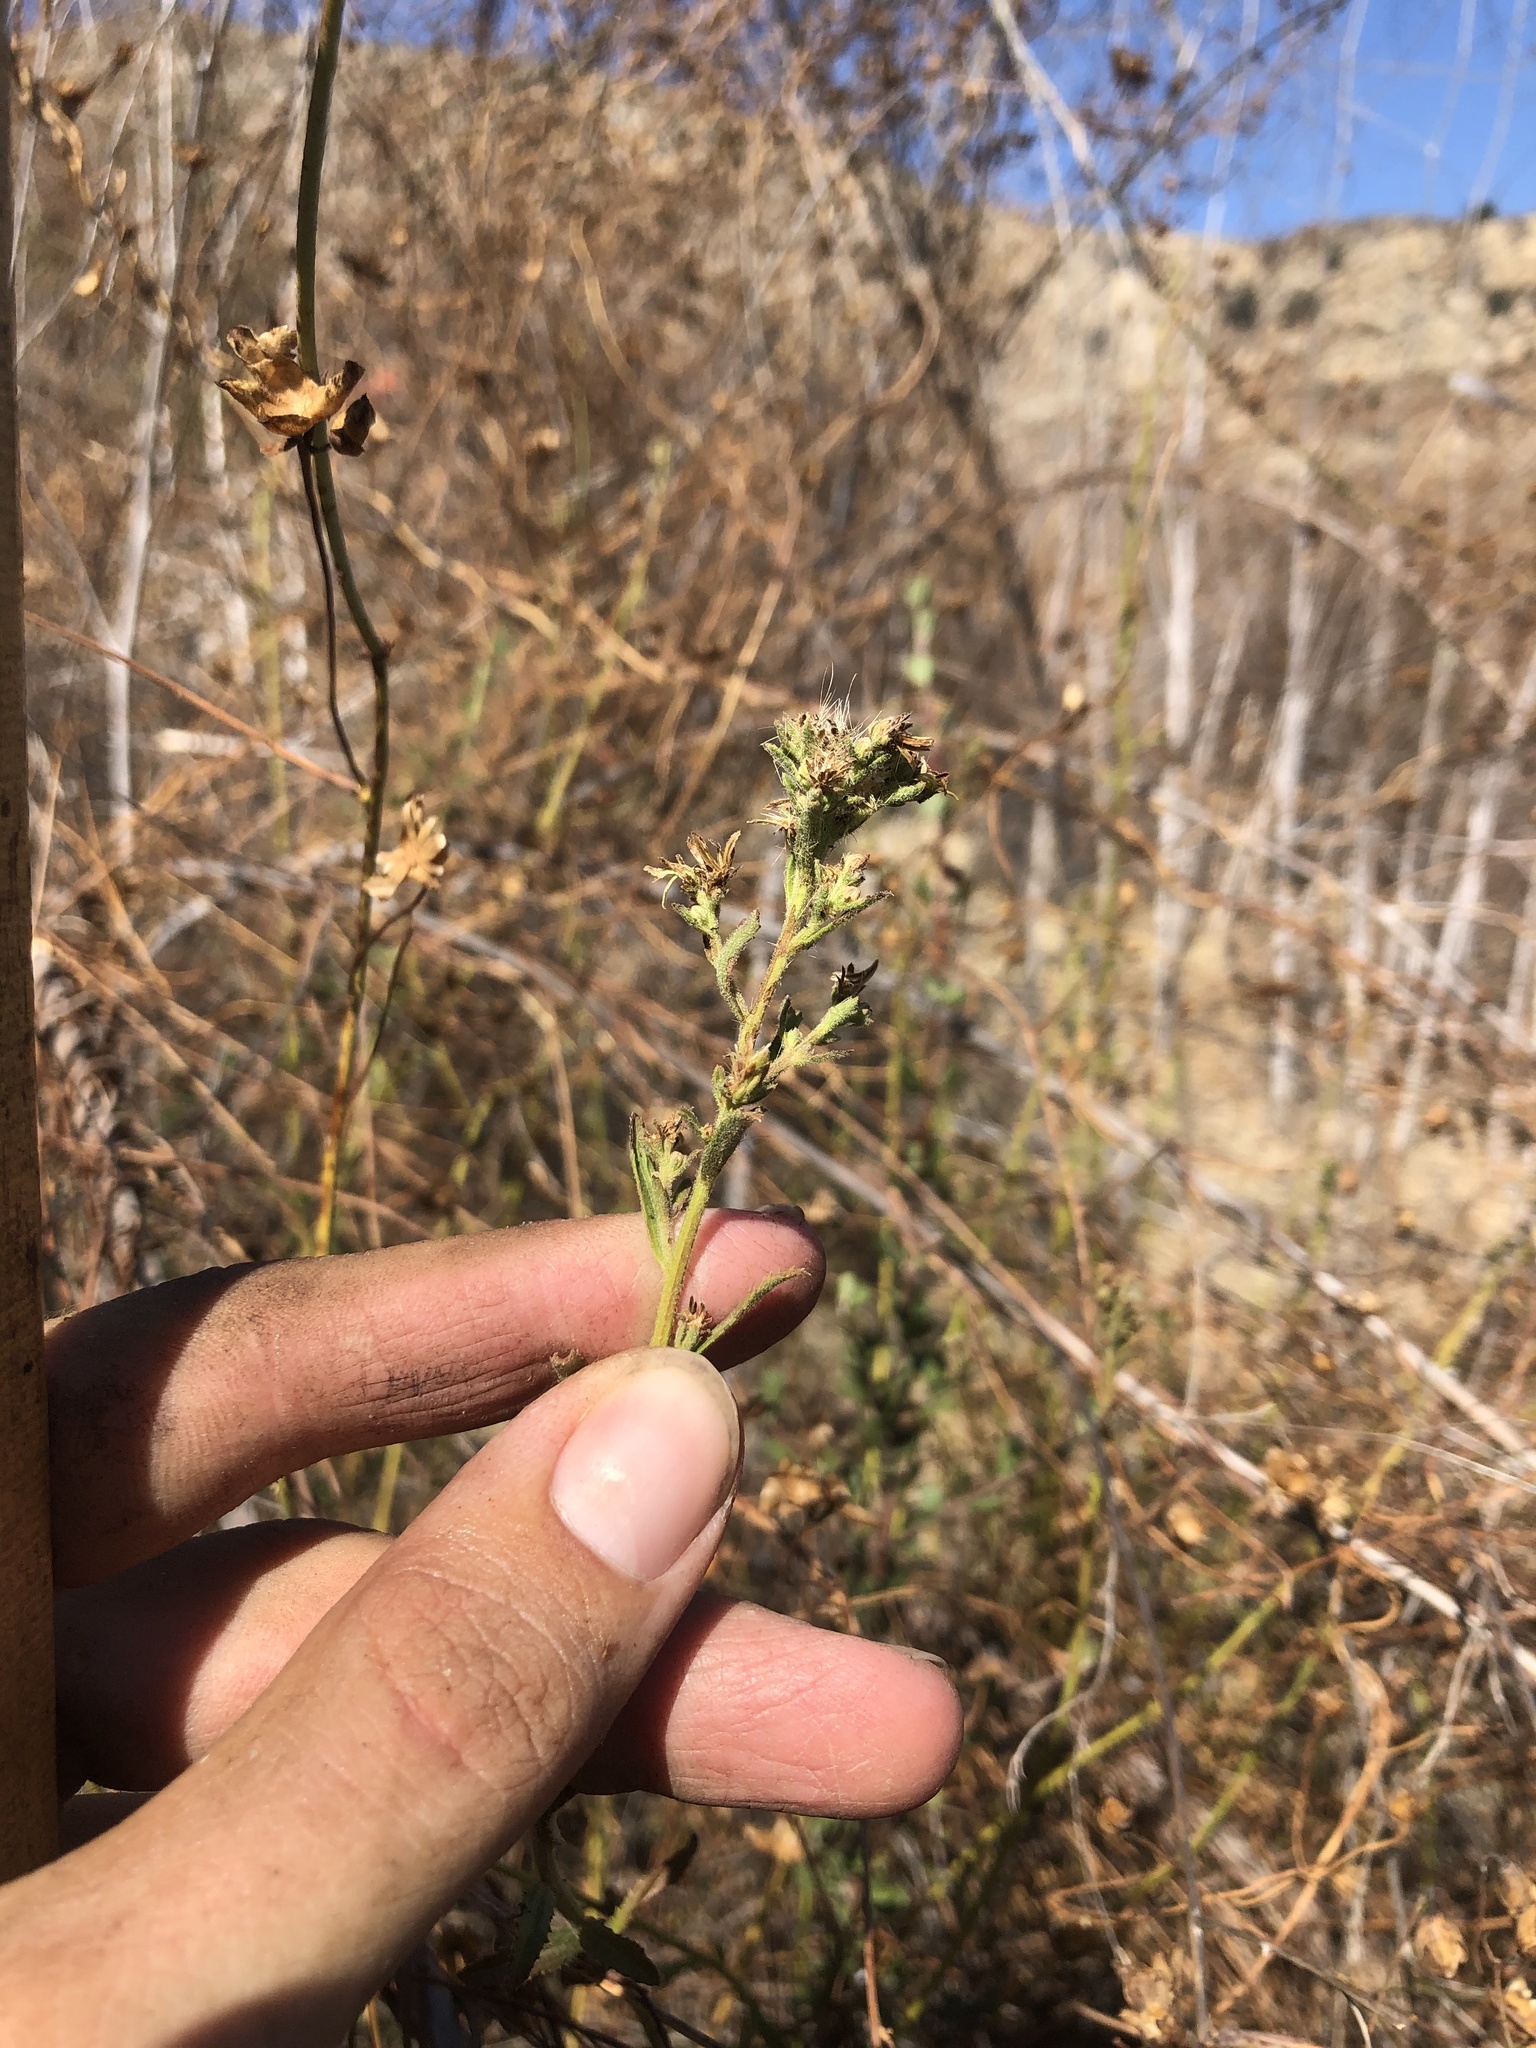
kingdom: Plantae
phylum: Tracheophyta
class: Magnoliopsida
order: Asterales
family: Asteraceae
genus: Baccharis
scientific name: Baccharis plummerae
